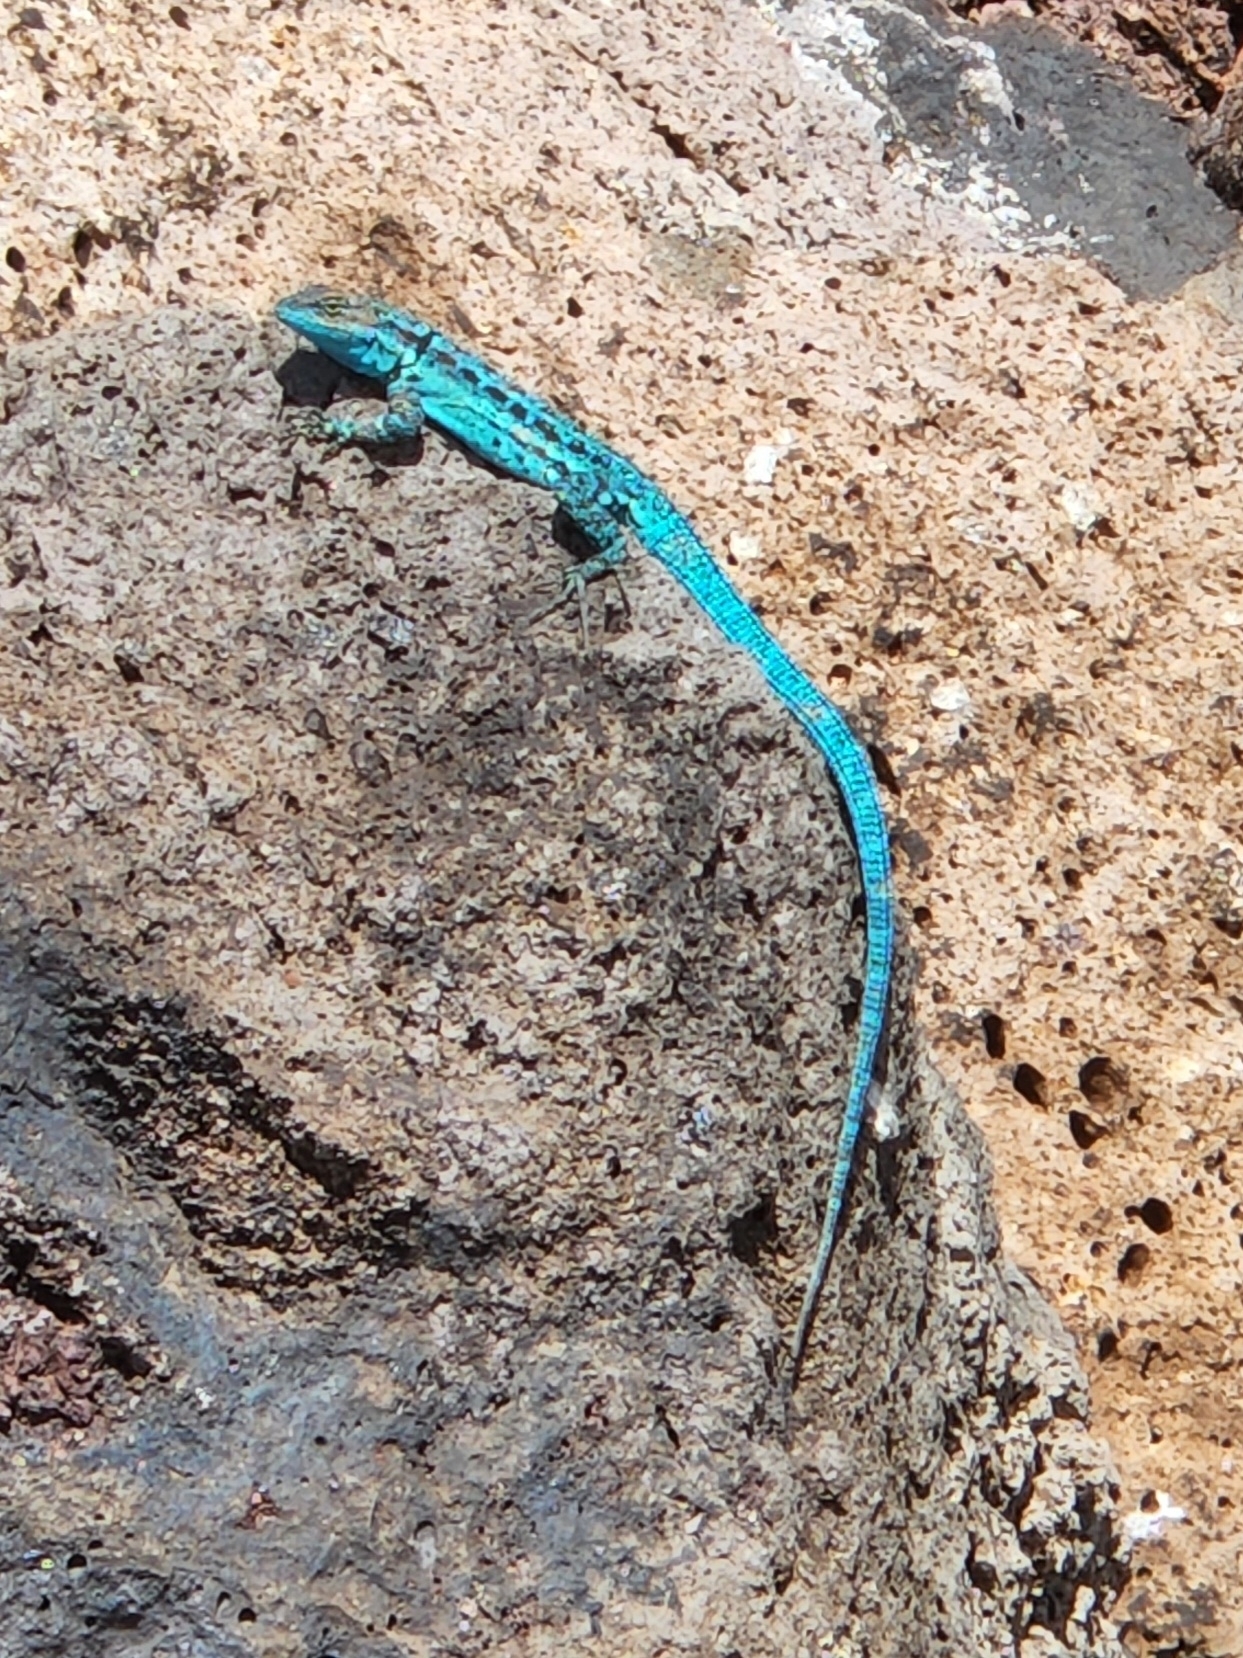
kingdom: Animalia
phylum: Chordata
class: Squamata
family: Phrynosomatidae
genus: Urosaurus
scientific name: Urosaurus clarionensis
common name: Clarion island tree lizard
